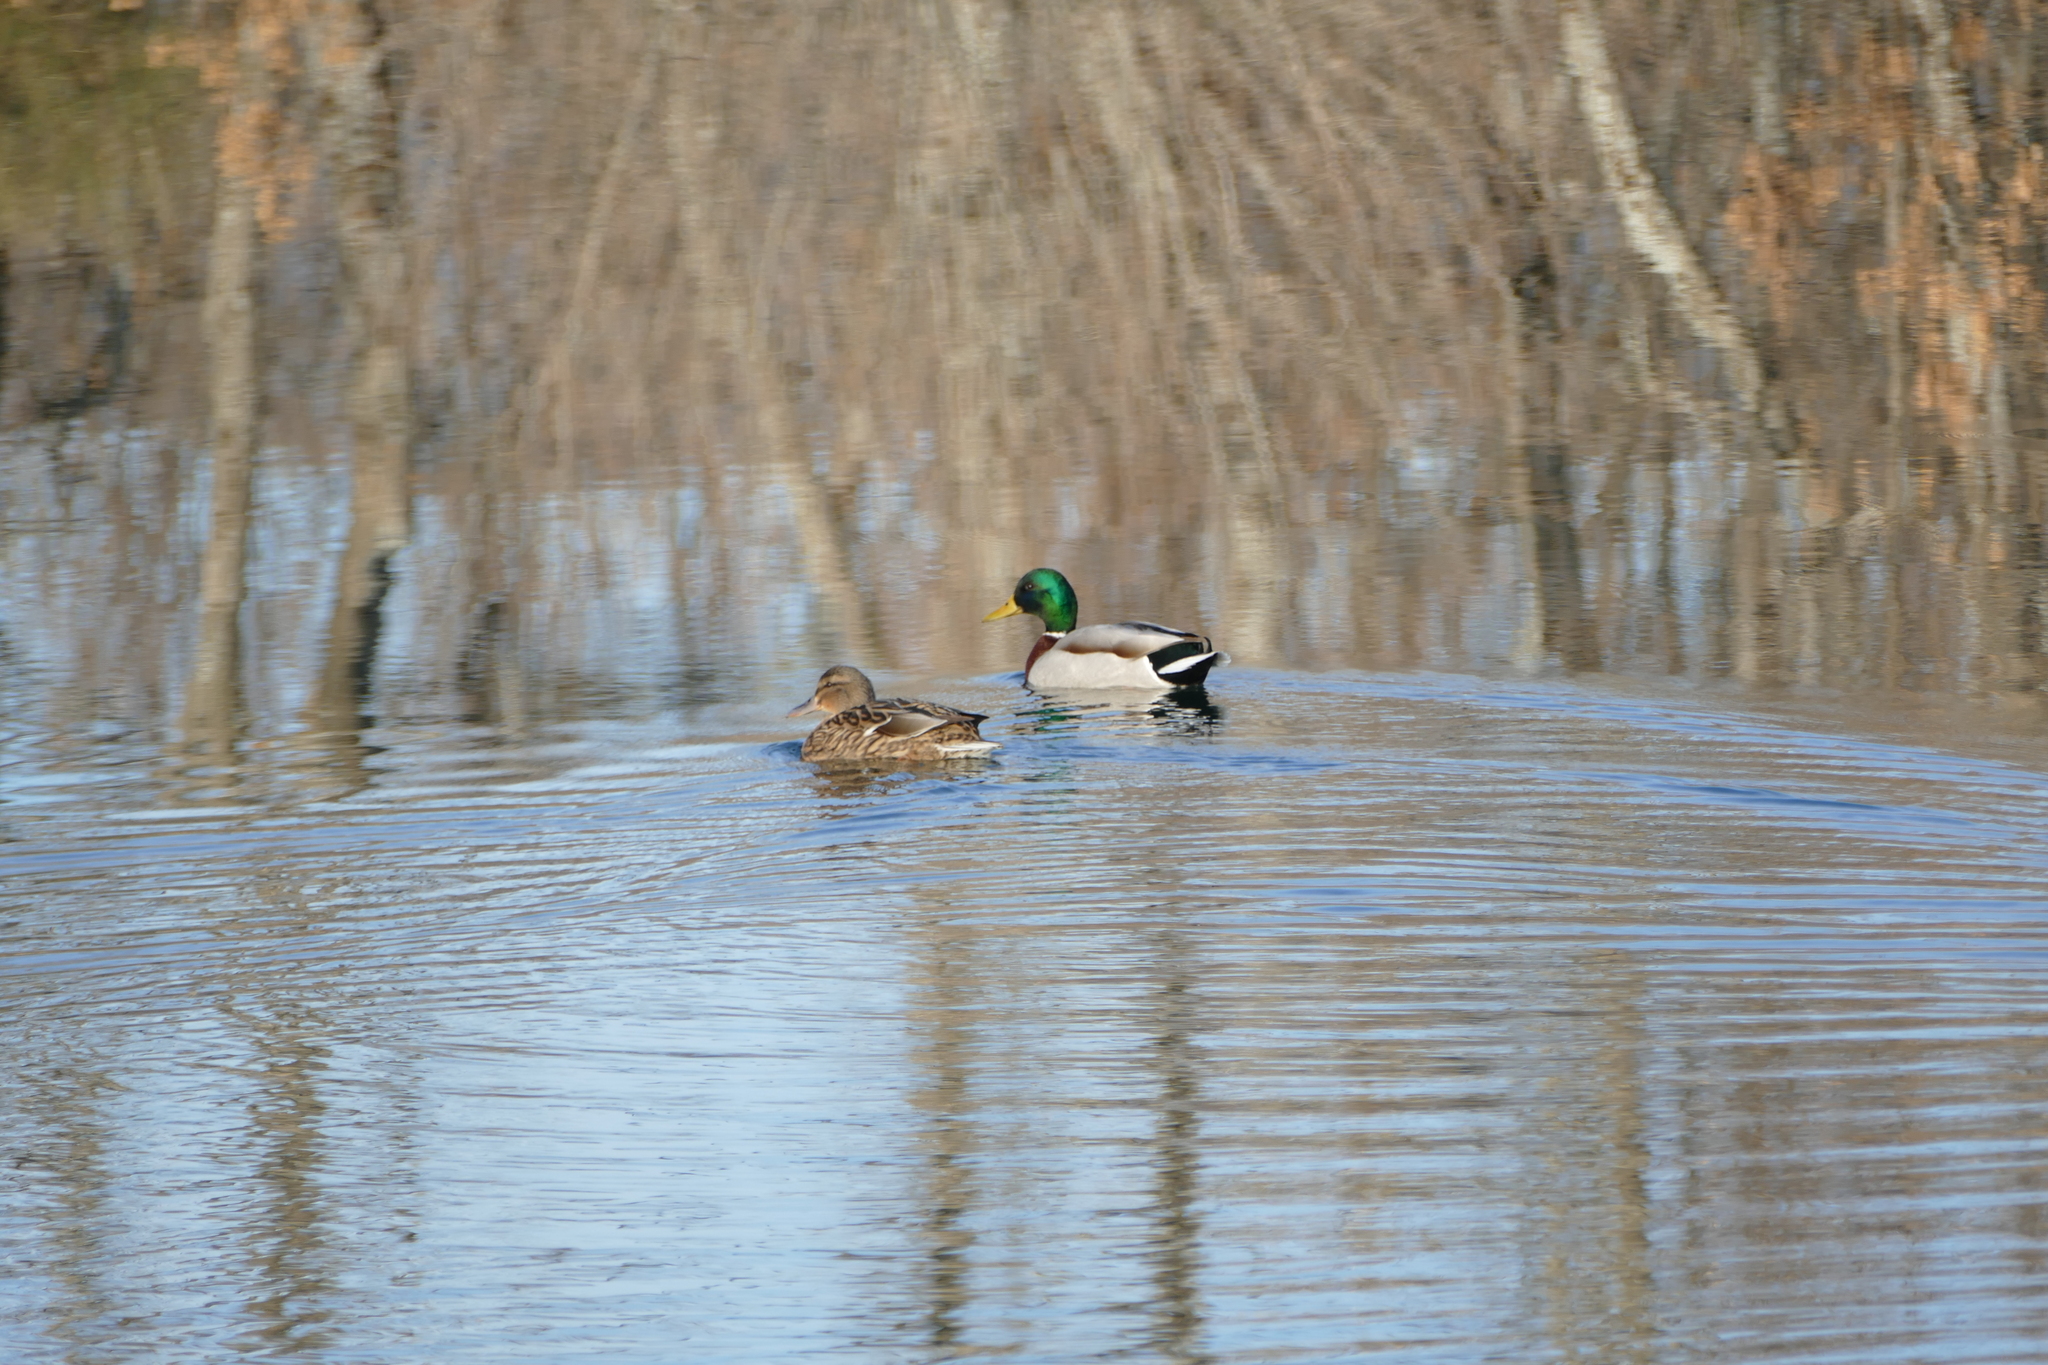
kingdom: Animalia
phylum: Chordata
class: Aves
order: Anseriformes
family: Anatidae
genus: Anas
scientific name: Anas platyrhynchos
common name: Mallard
